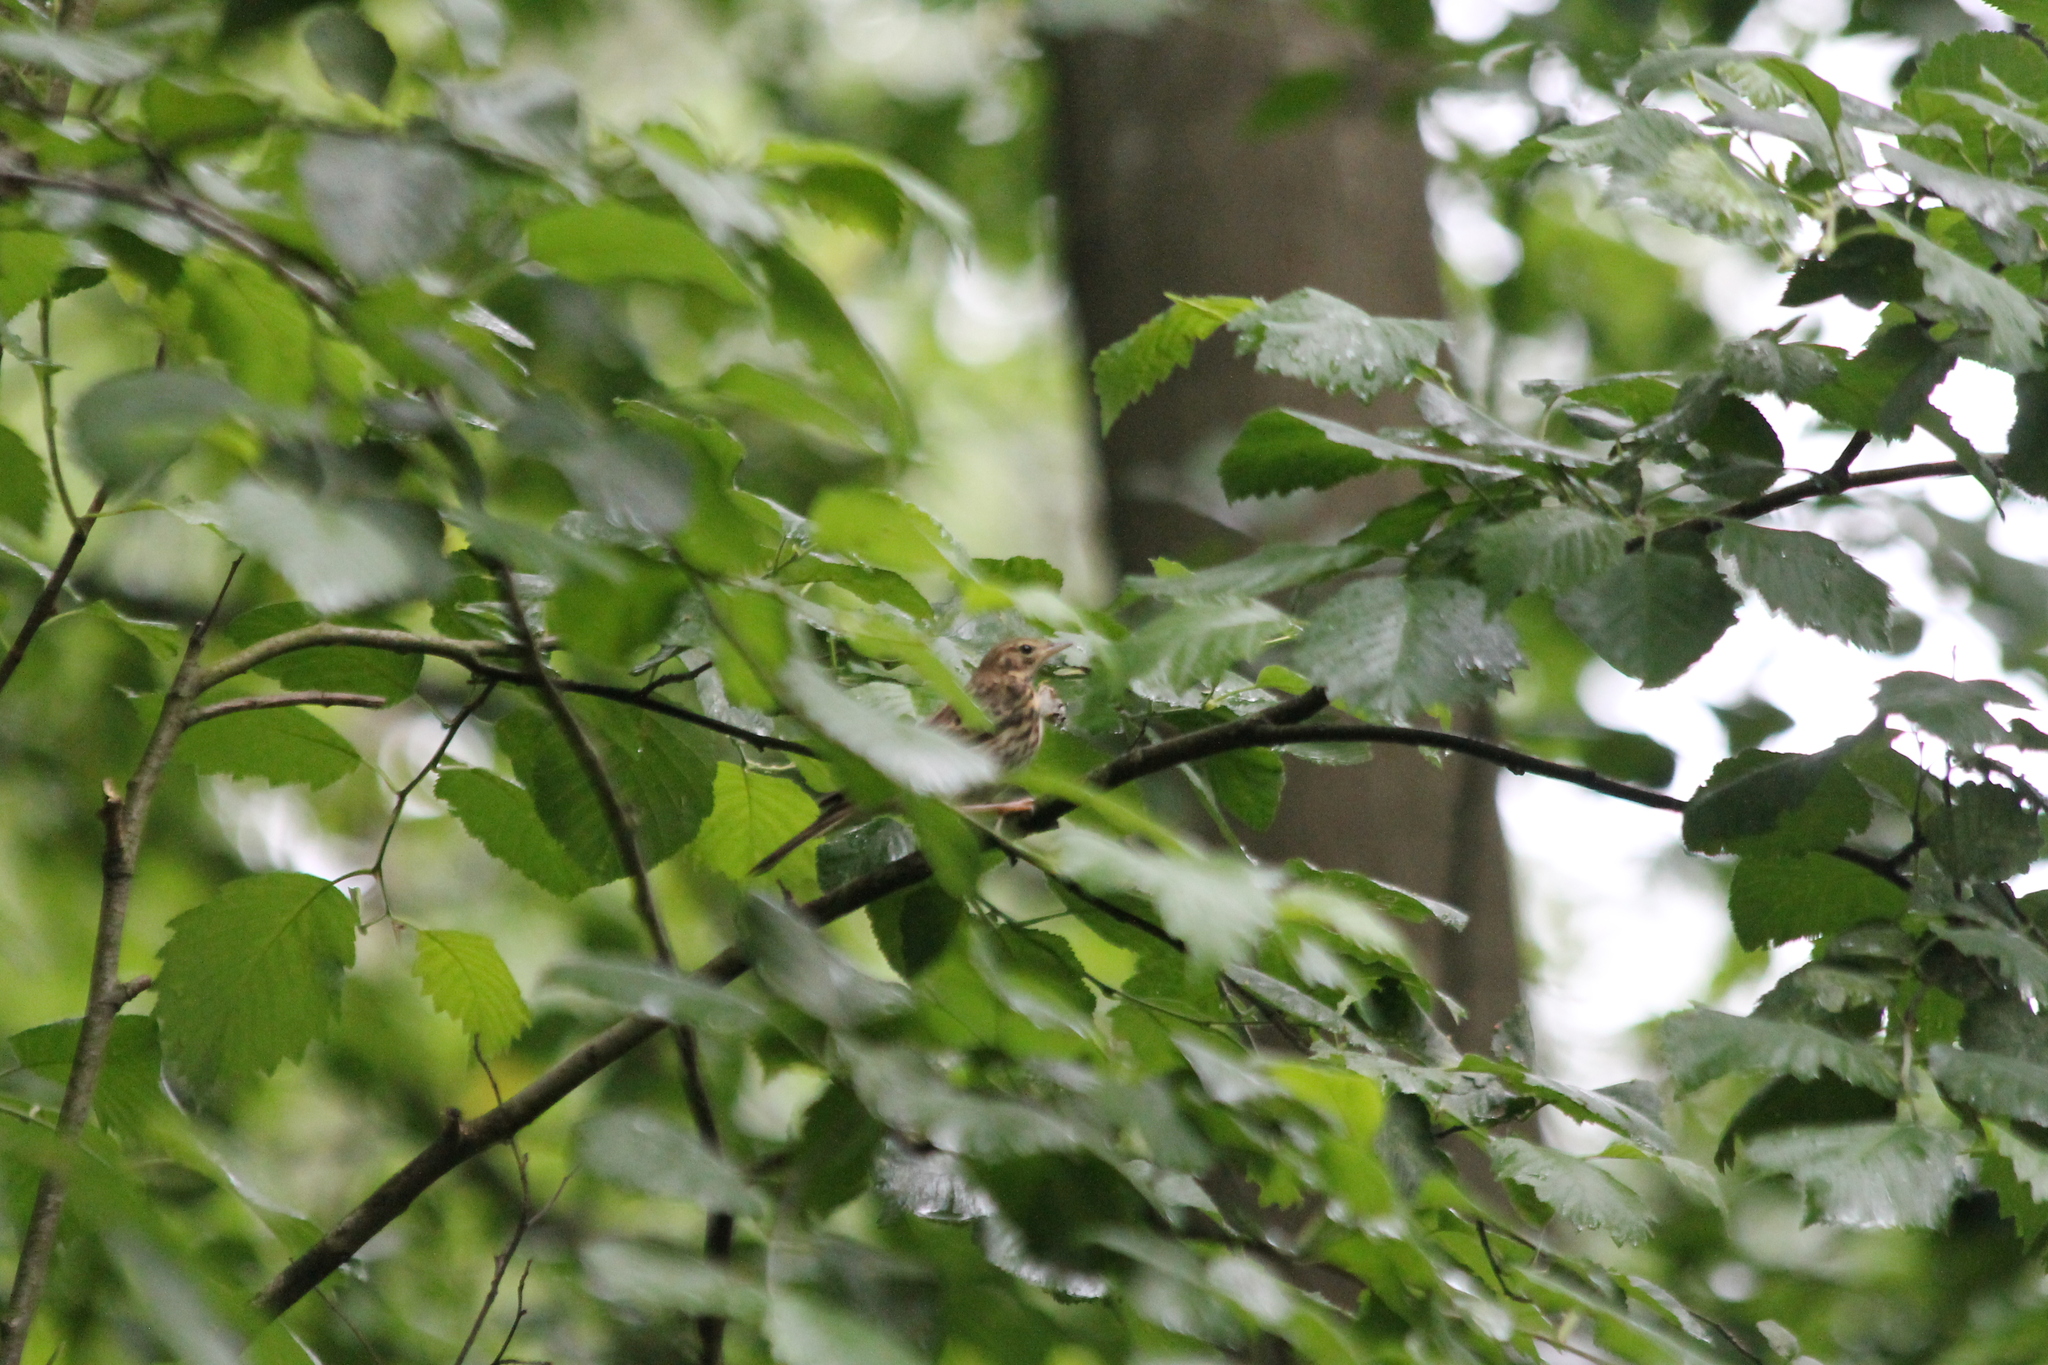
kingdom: Animalia
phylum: Chordata
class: Aves
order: Passeriformes
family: Motacillidae
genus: Anthus
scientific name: Anthus trivialis
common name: Tree pipit
